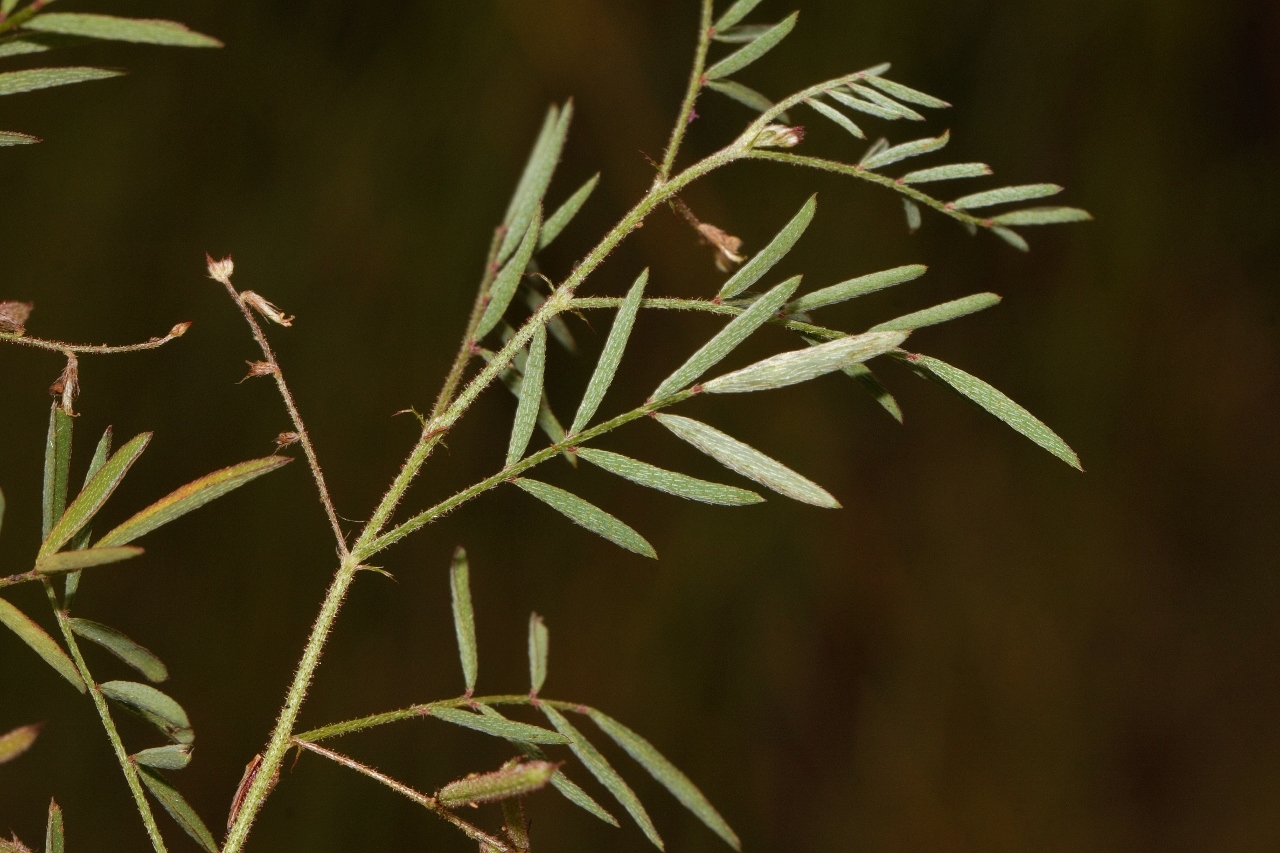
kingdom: Plantae
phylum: Tracheophyta
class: Magnoliopsida
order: Fabales
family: Fabaceae
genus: Indigofera
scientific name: Indigofera brachynema
